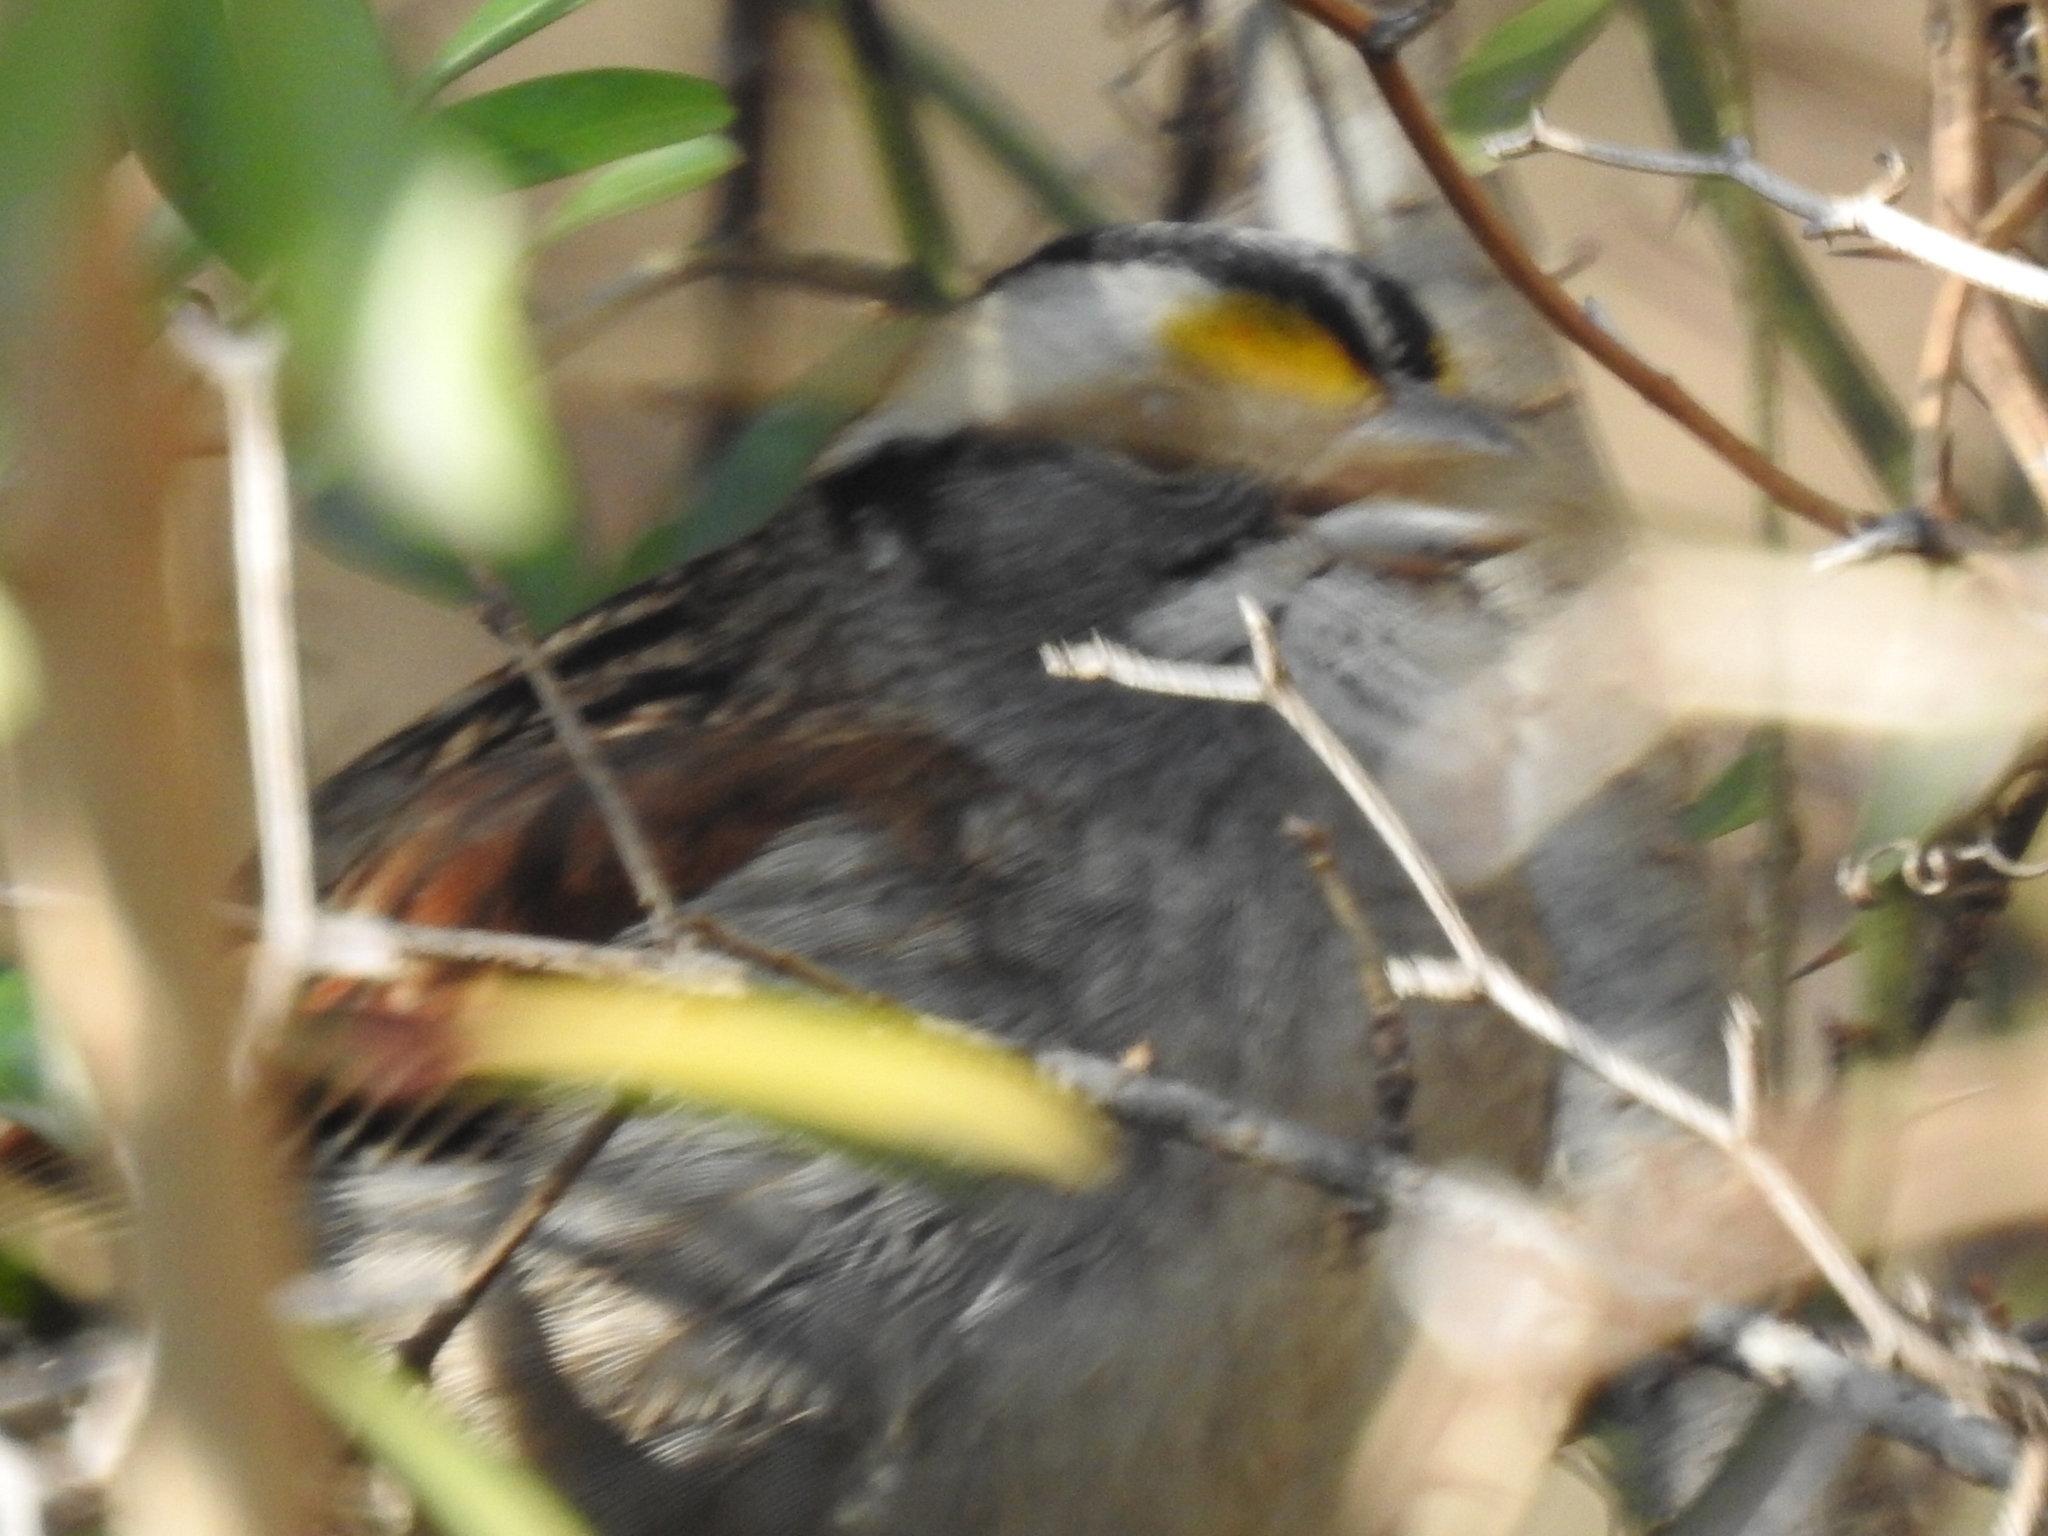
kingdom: Animalia
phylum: Chordata
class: Aves
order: Passeriformes
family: Passerellidae
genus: Zonotrichia
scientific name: Zonotrichia albicollis
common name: White-throated sparrow
